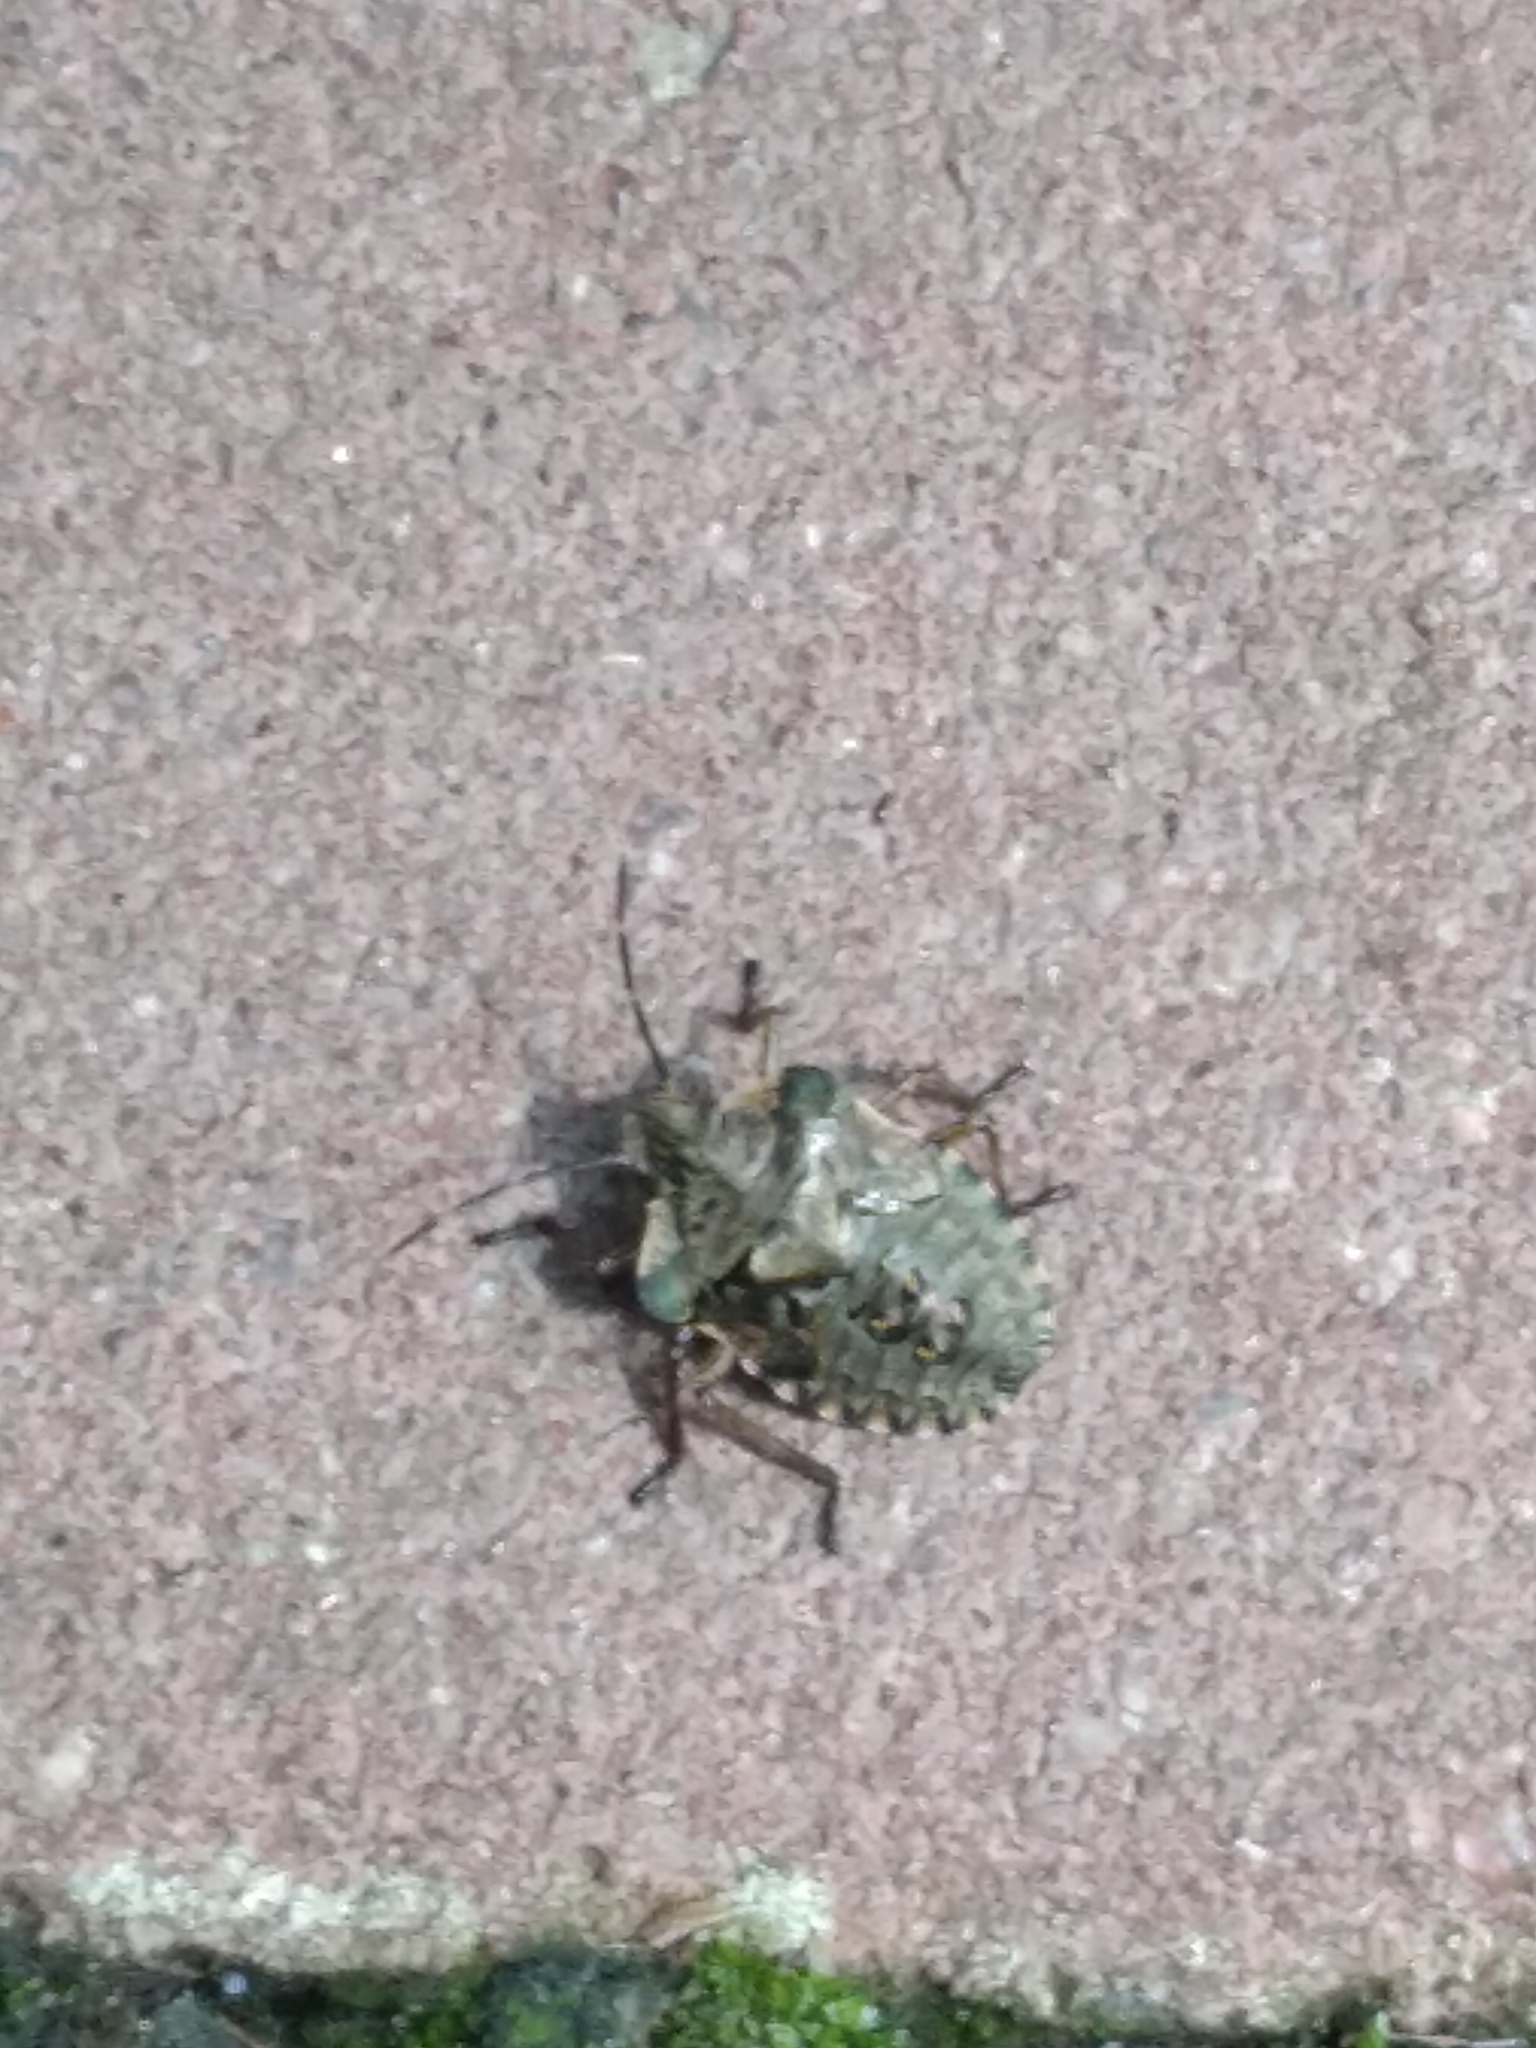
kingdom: Animalia
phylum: Arthropoda
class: Insecta
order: Hemiptera
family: Pentatomidae
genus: Pentatoma
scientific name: Pentatoma rufipes
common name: Forest bug
